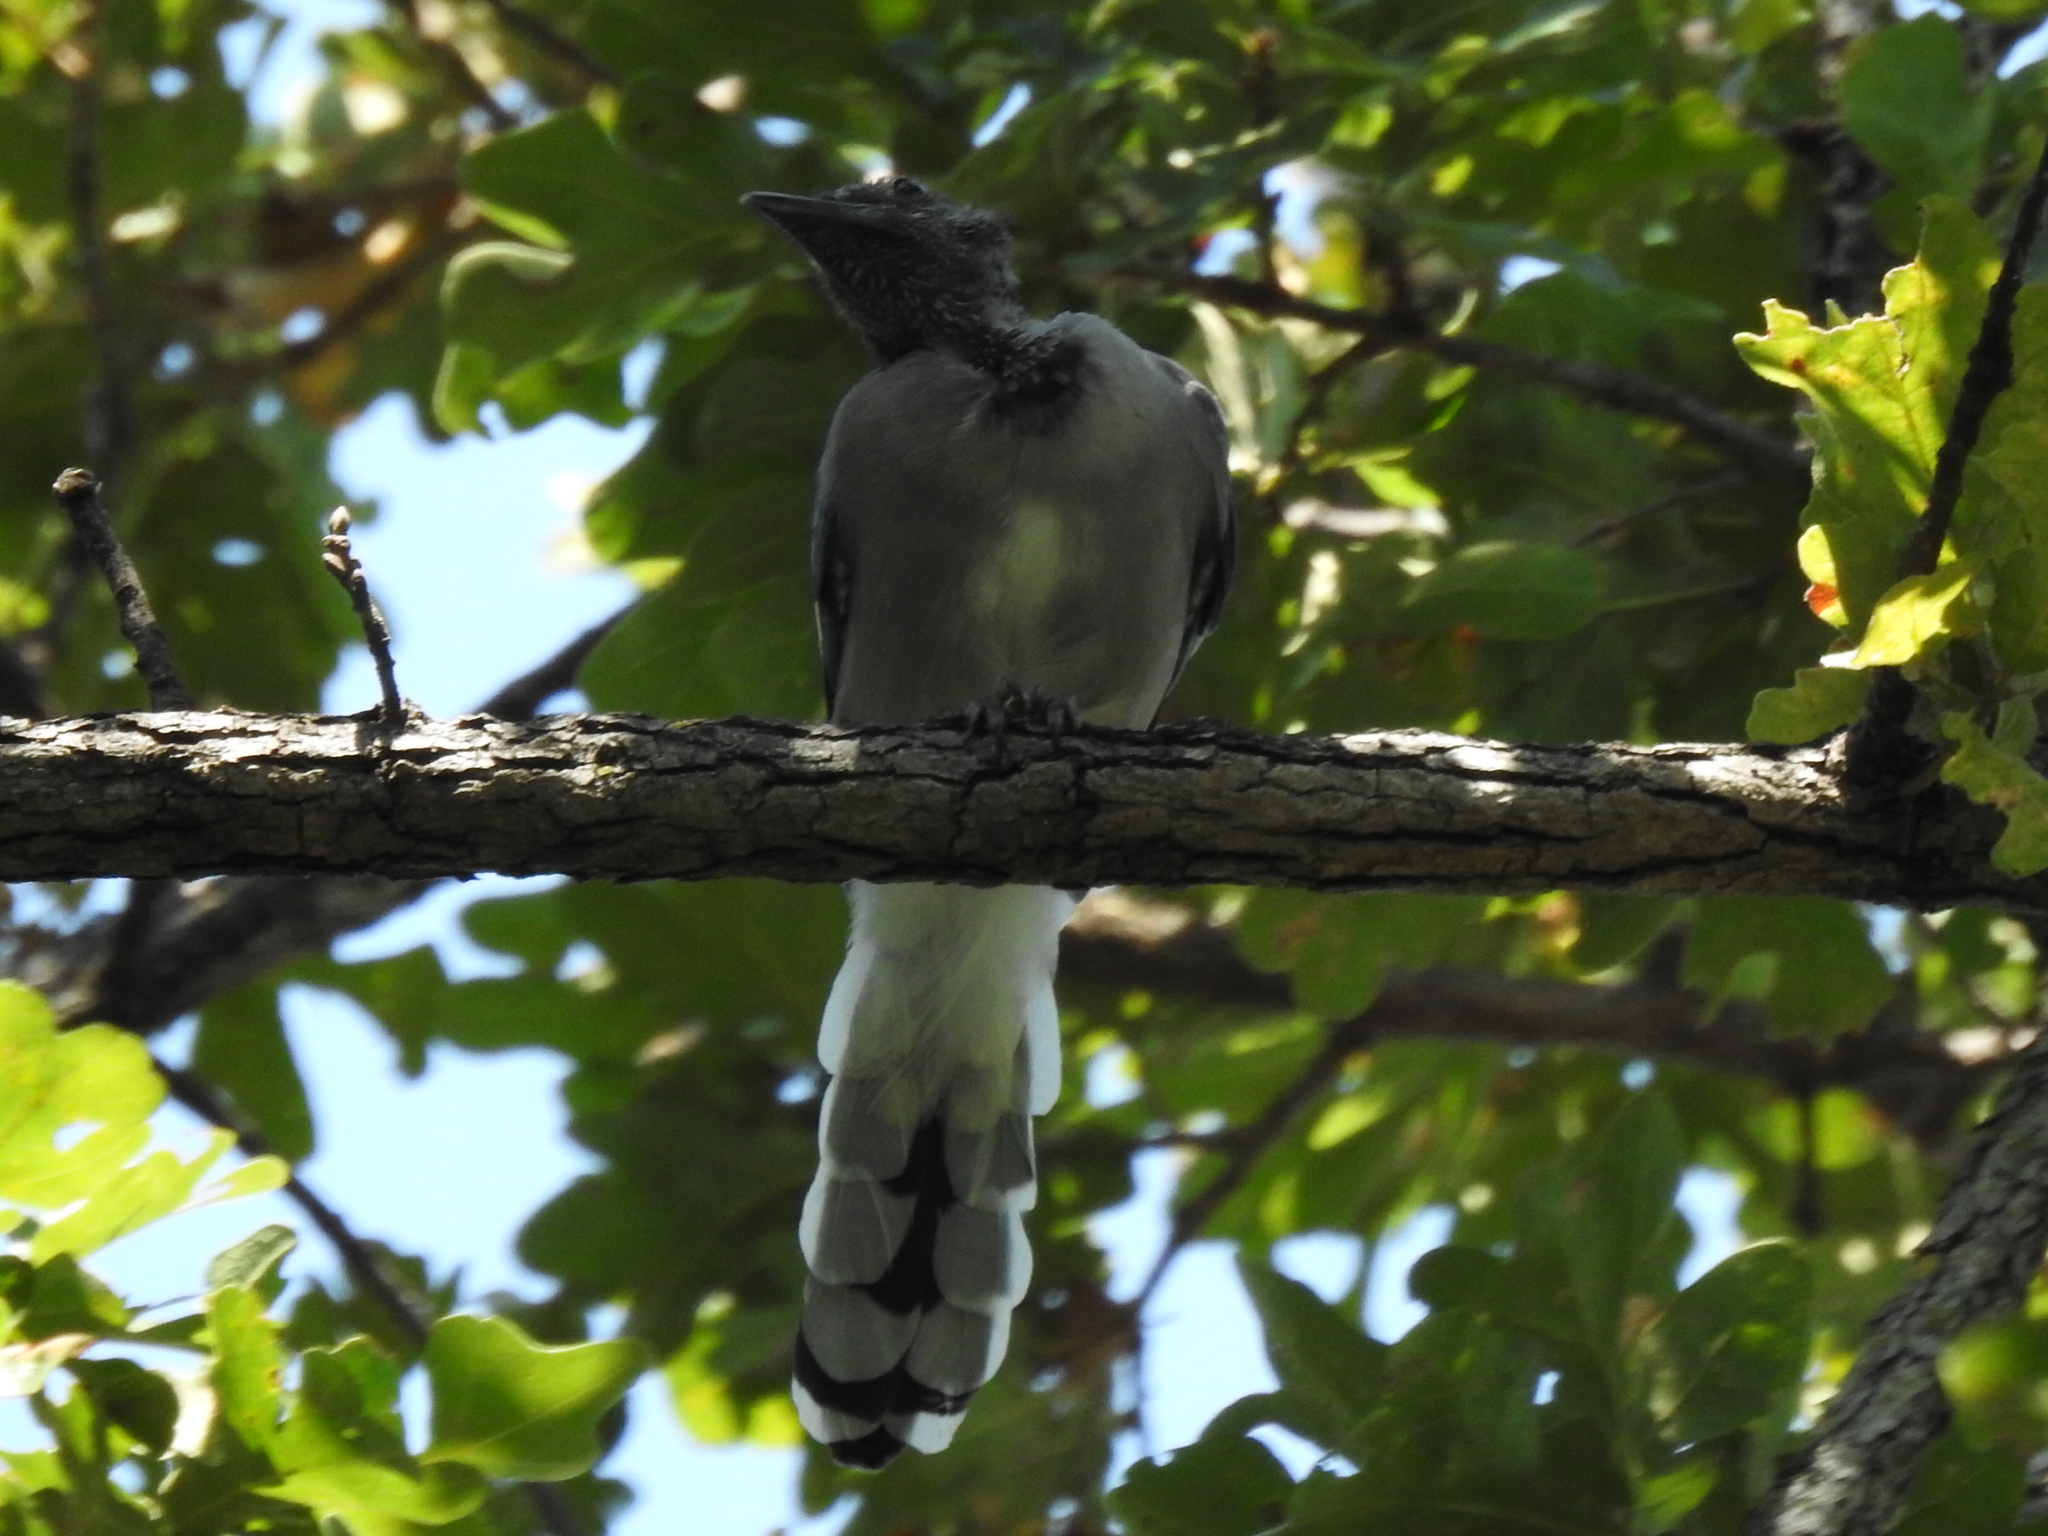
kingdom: Animalia
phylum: Chordata
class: Aves
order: Passeriformes
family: Corvidae
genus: Cyanocitta
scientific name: Cyanocitta cristata
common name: Blue jay
